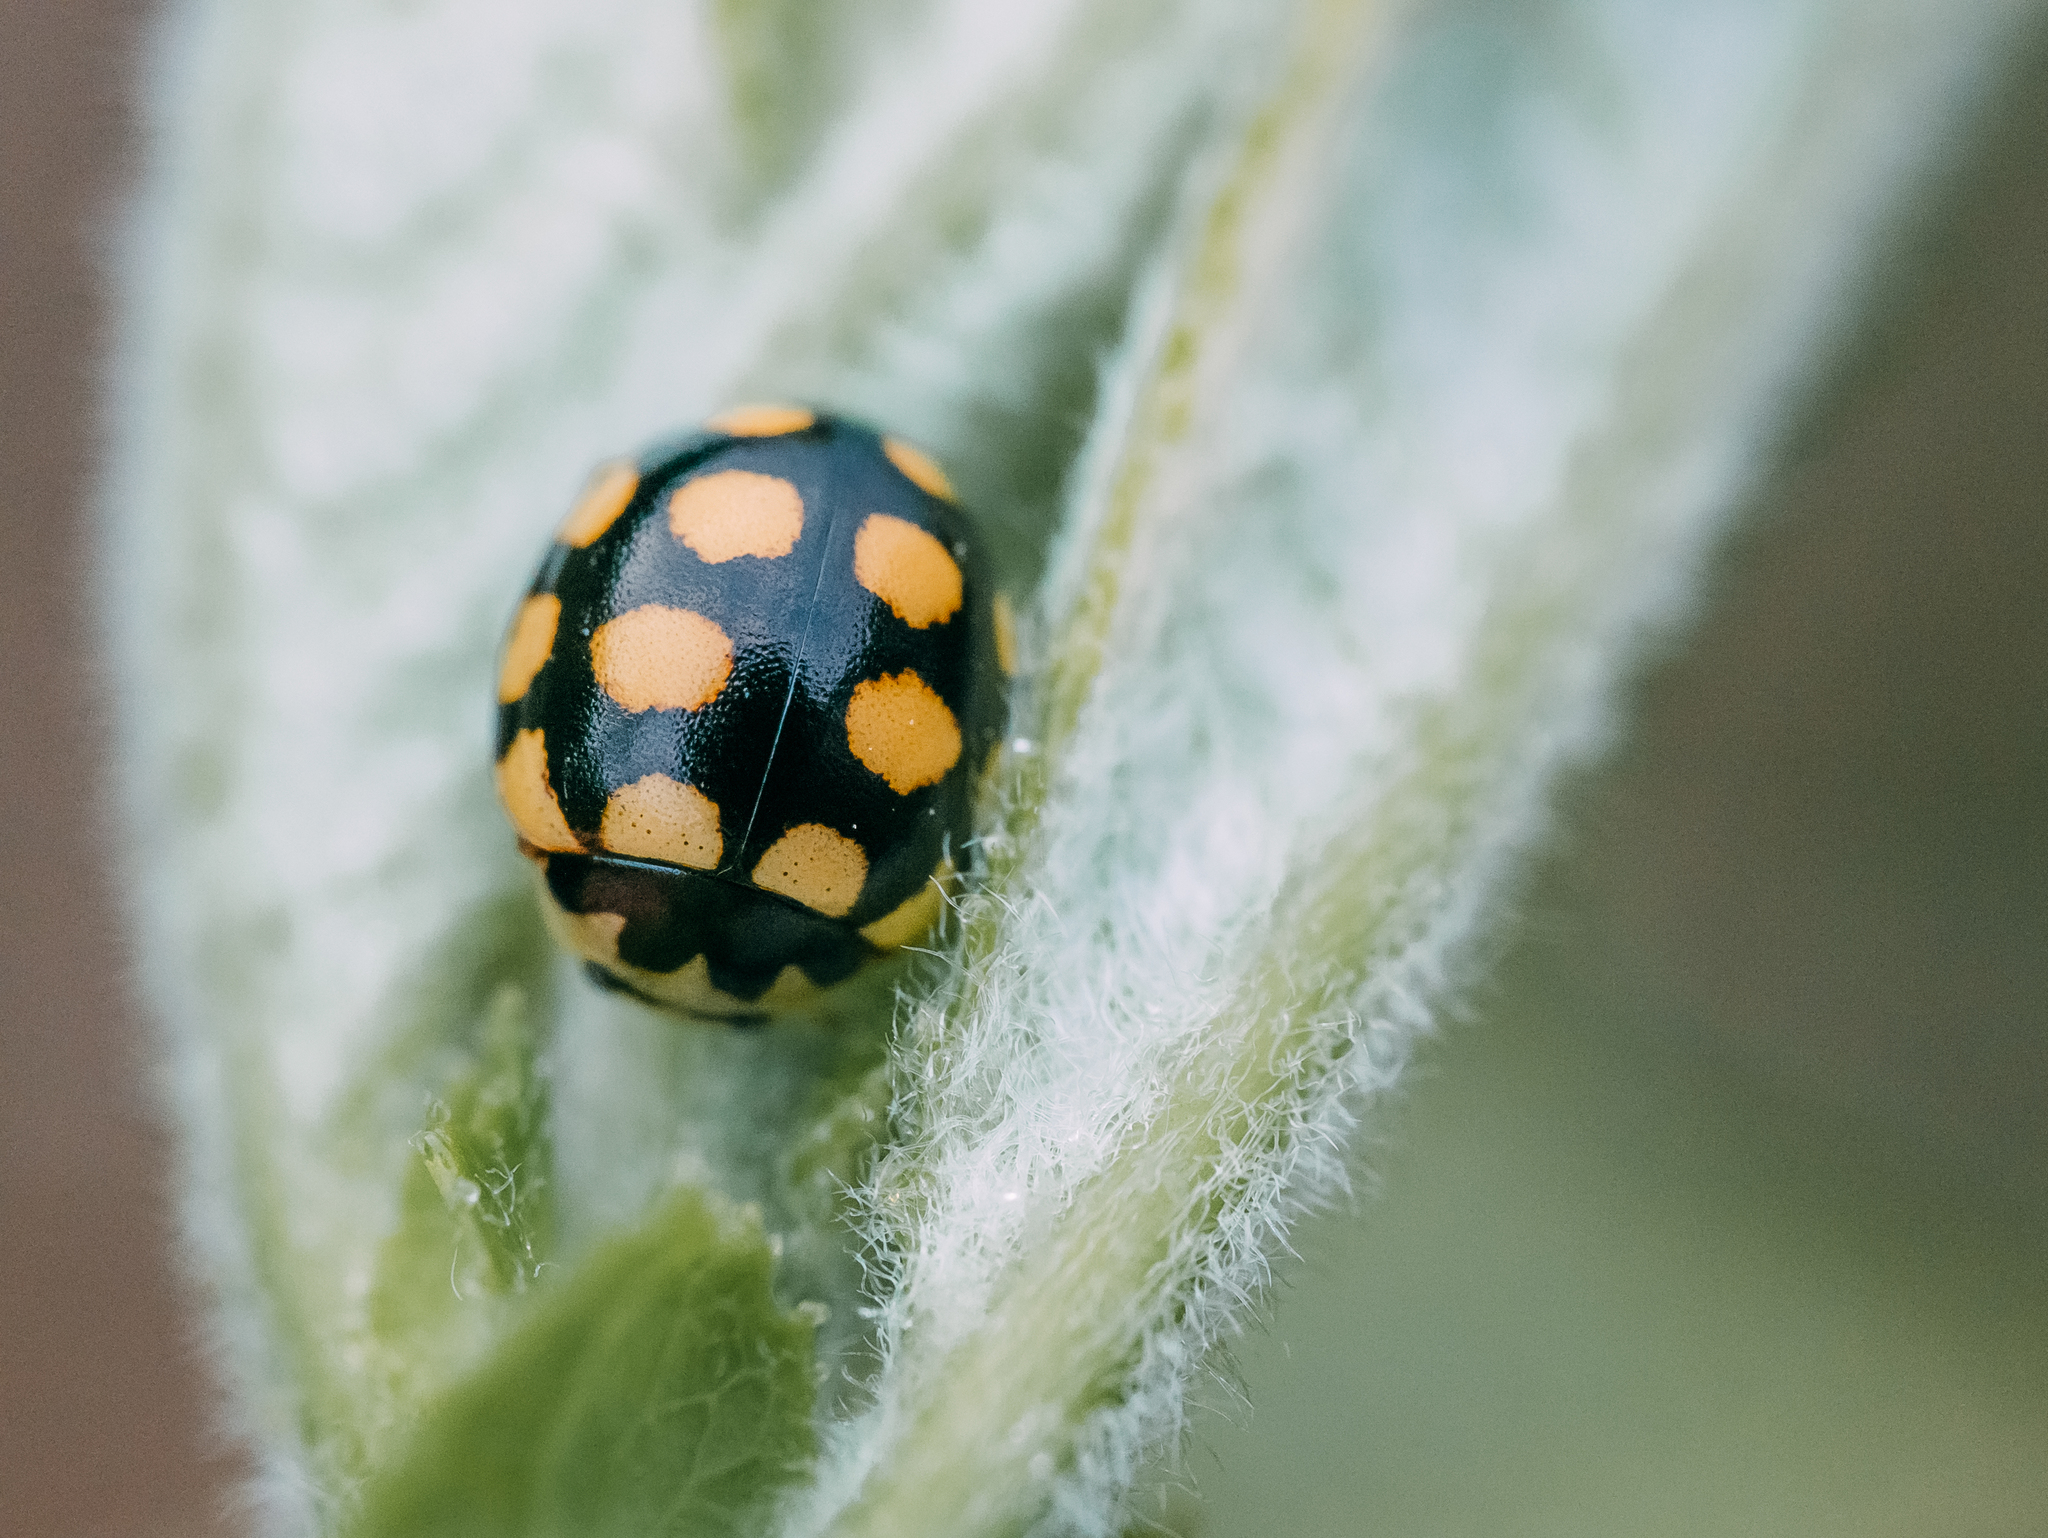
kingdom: Animalia
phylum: Arthropoda
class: Insecta
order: Coleoptera
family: Coccinellidae
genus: Coccinula
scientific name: Coccinula quatuordecimpustulata
